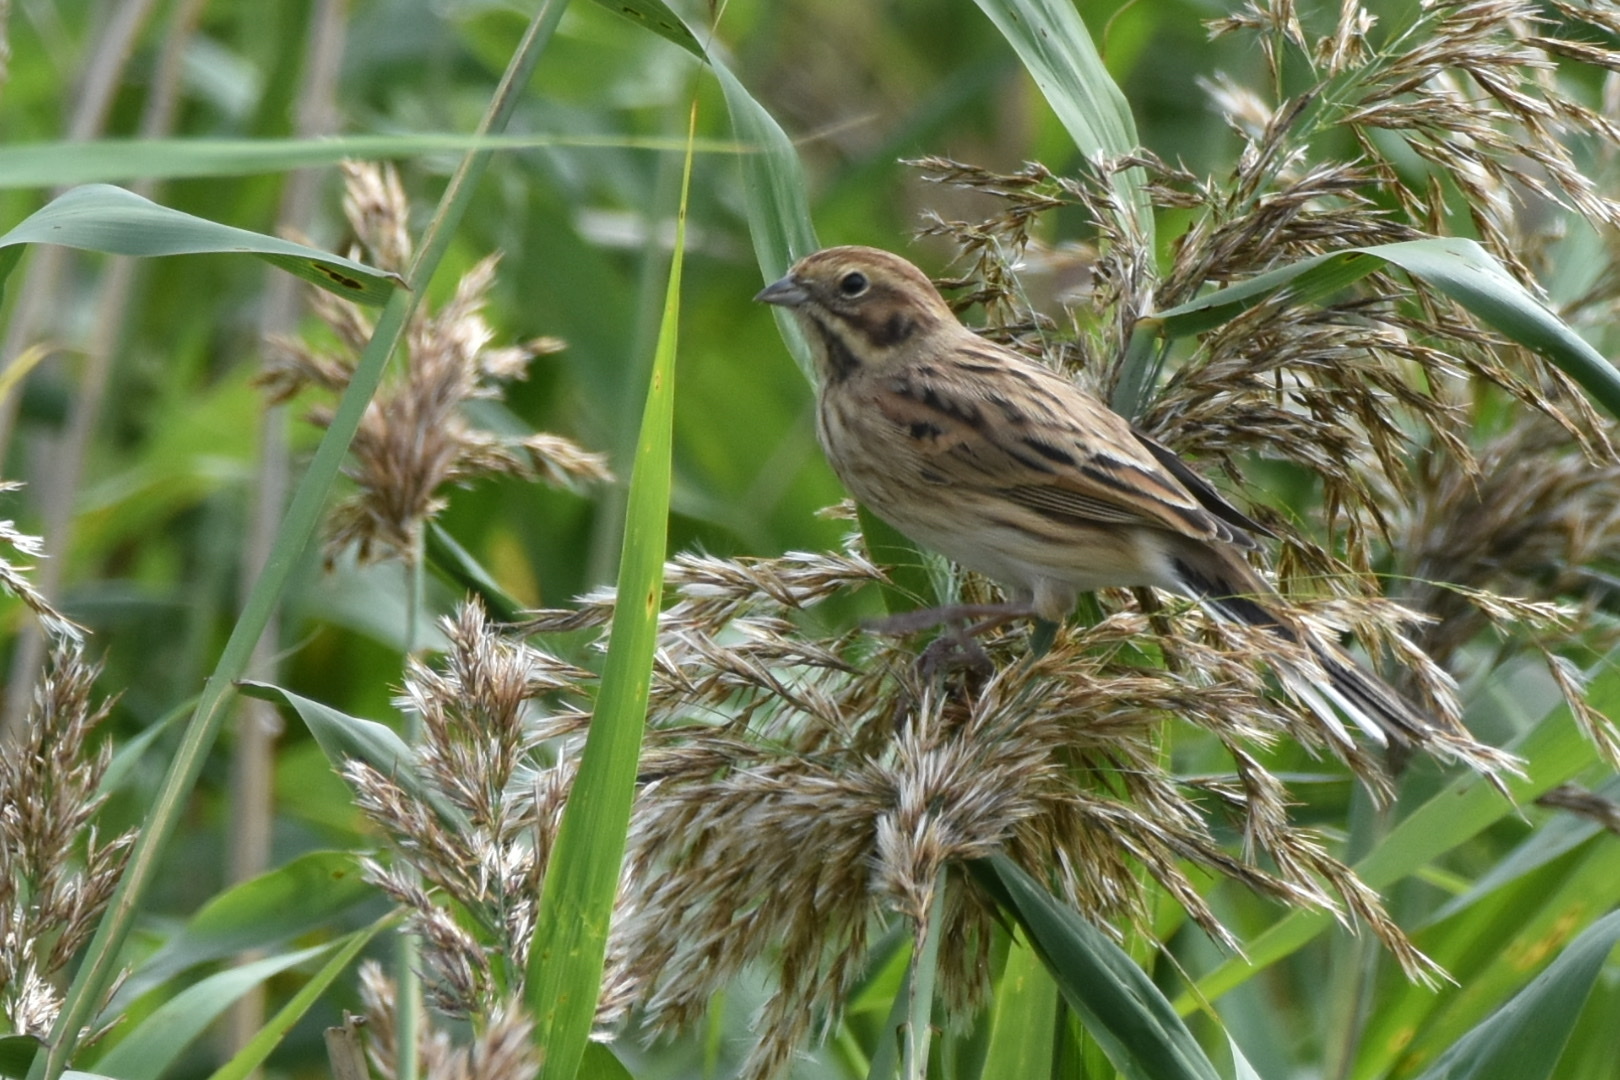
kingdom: Animalia
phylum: Chordata
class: Aves
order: Passeriformes
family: Emberizidae
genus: Emberiza
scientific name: Emberiza schoeniclus
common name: Reed bunting
